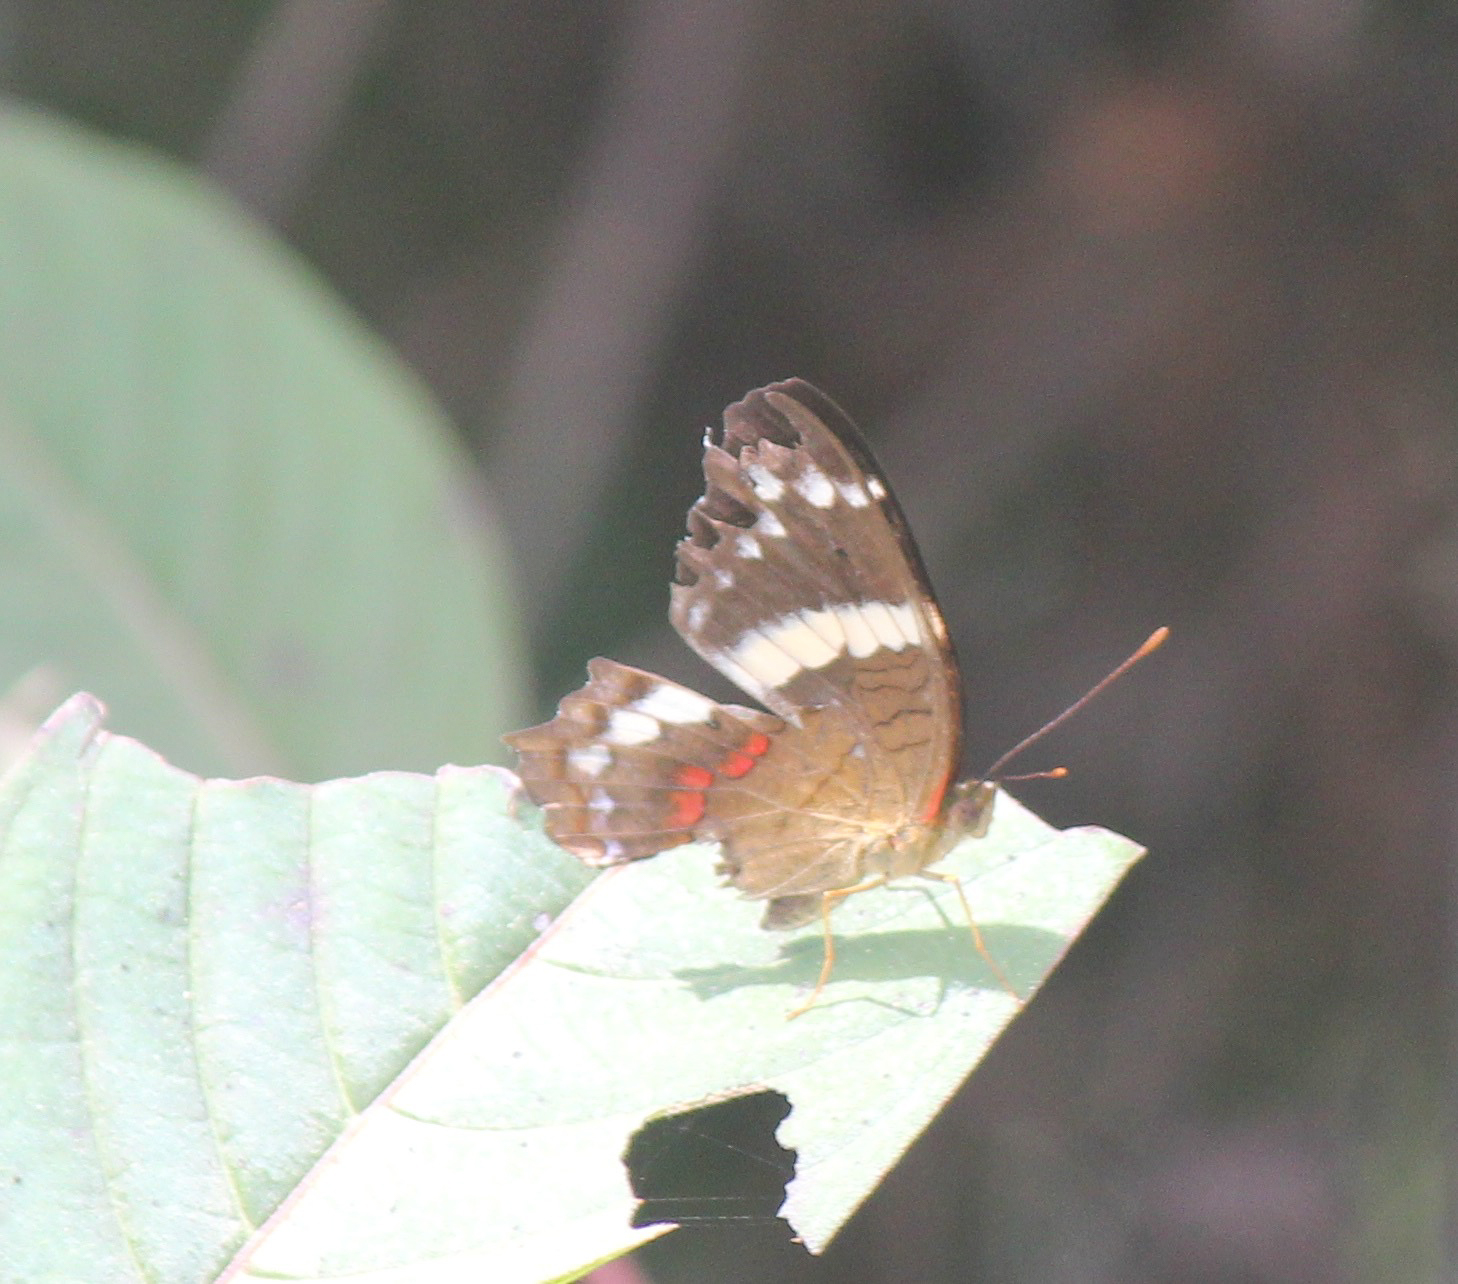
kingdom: Animalia
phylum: Arthropoda
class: Insecta
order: Lepidoptera
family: Nymphalidae
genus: Anartia
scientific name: Anartia fatima
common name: Banded peacock
